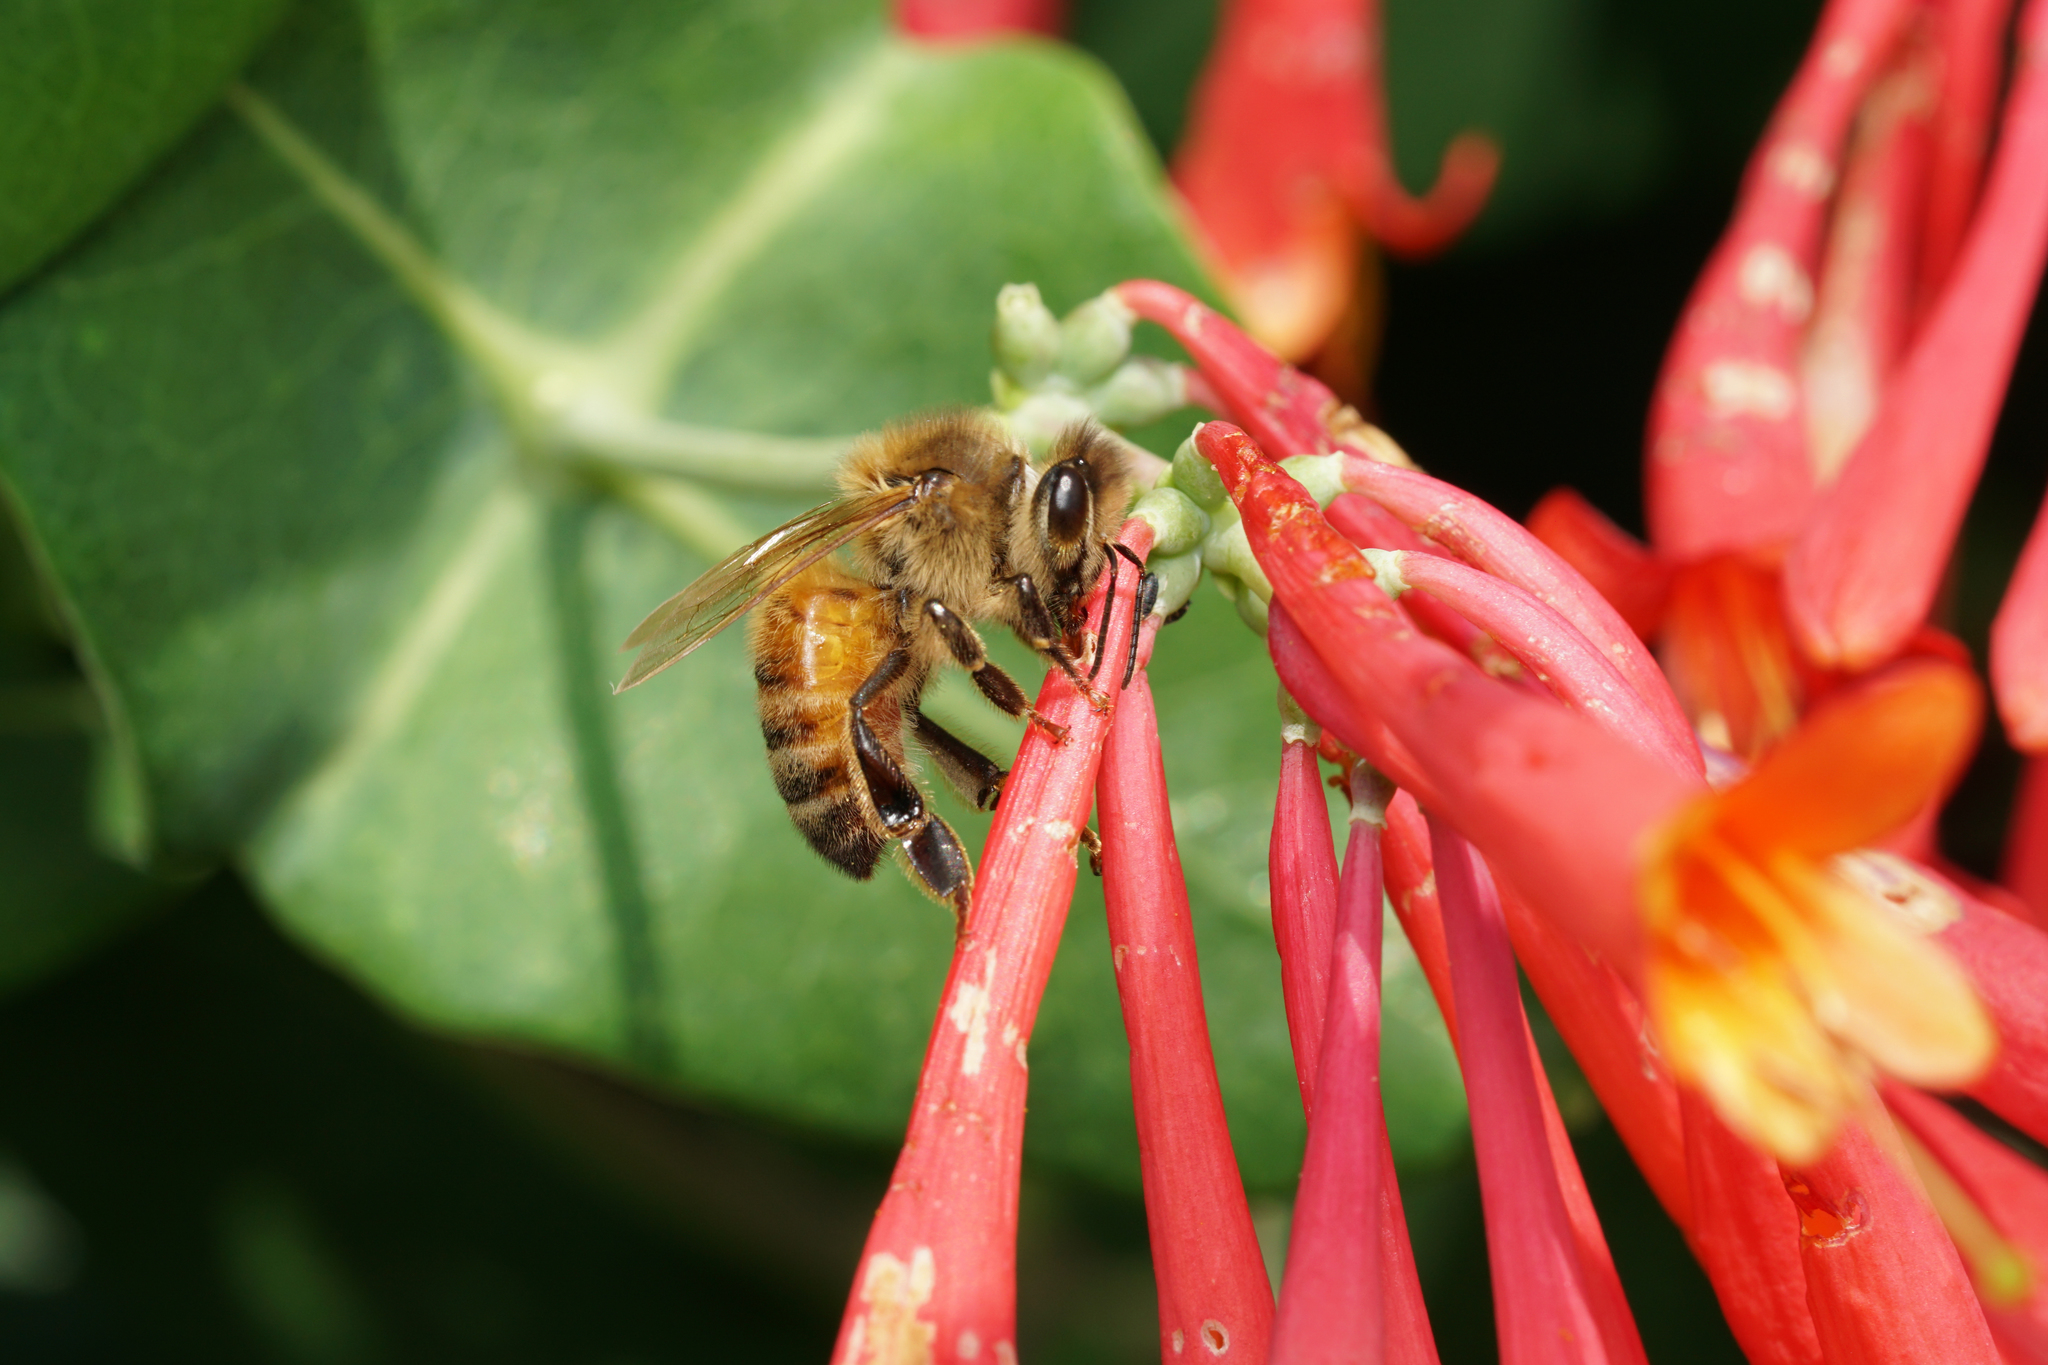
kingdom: Animalia
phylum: Arthropoda
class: Insecta
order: Hymenoptera
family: Apidae
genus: Apis
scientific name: Apis mellifera
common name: Honey bee
